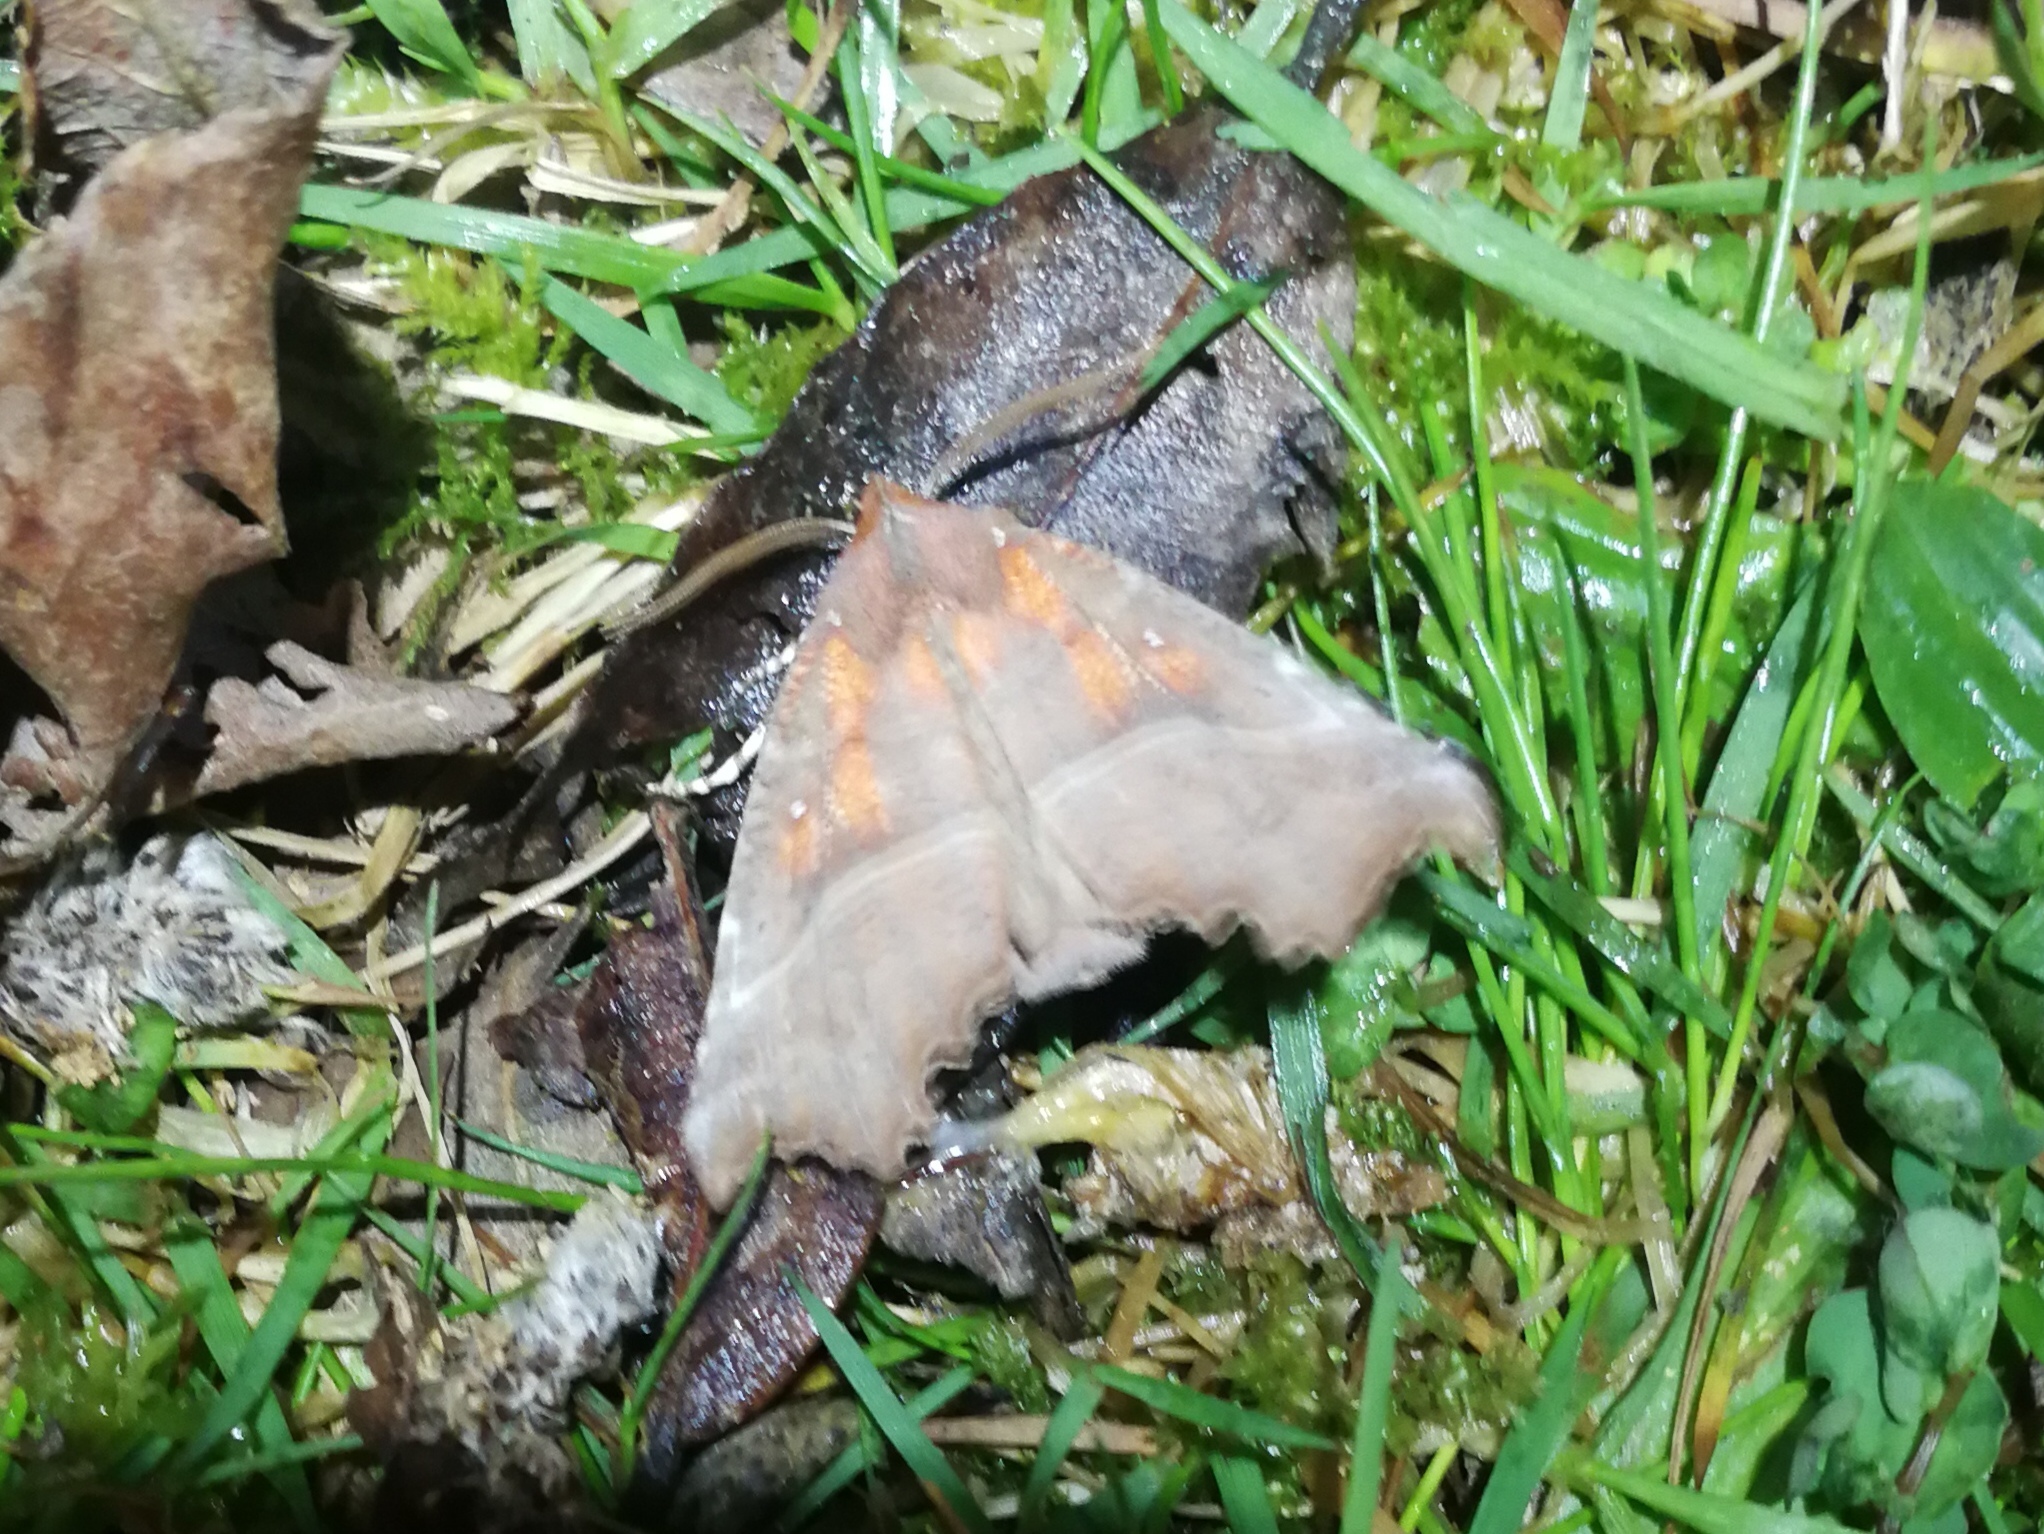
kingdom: Animalia
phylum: Arthropoda
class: Insecta
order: Lepidoptera
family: Erebidae
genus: Scoliopteryx
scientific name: Scoliopteryx libatrix
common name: Herald
